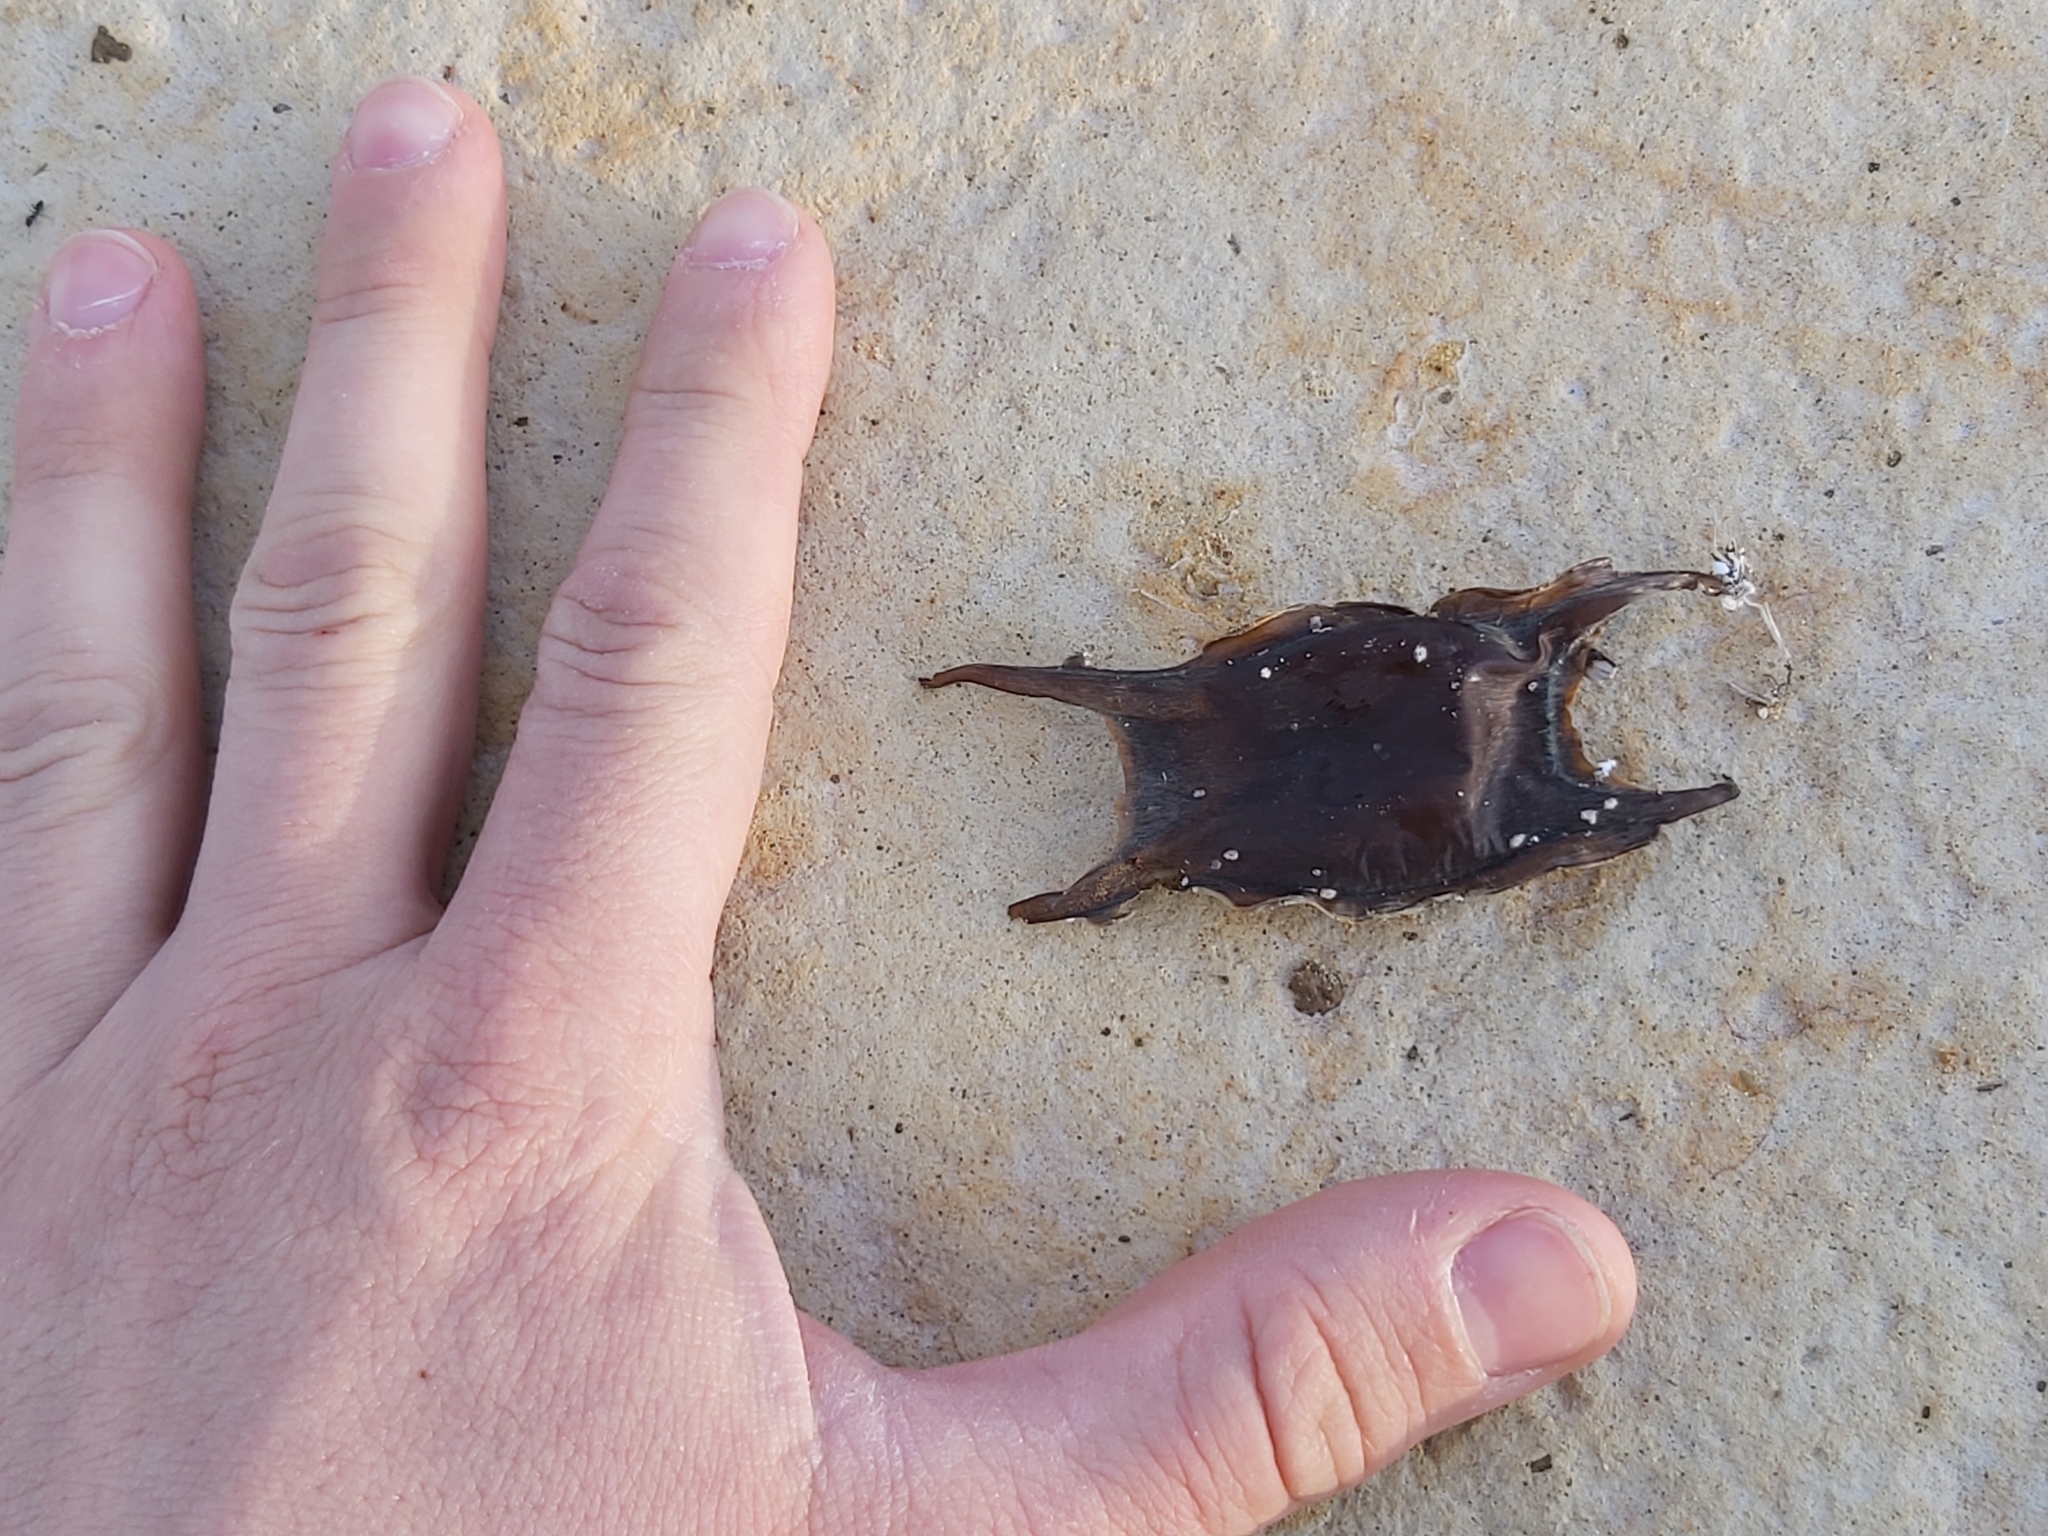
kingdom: Animalia
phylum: Chordata
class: Elasmobranchii
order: Rajiformes
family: Rajidae
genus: Raja
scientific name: Raja asterias
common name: Starry ray
